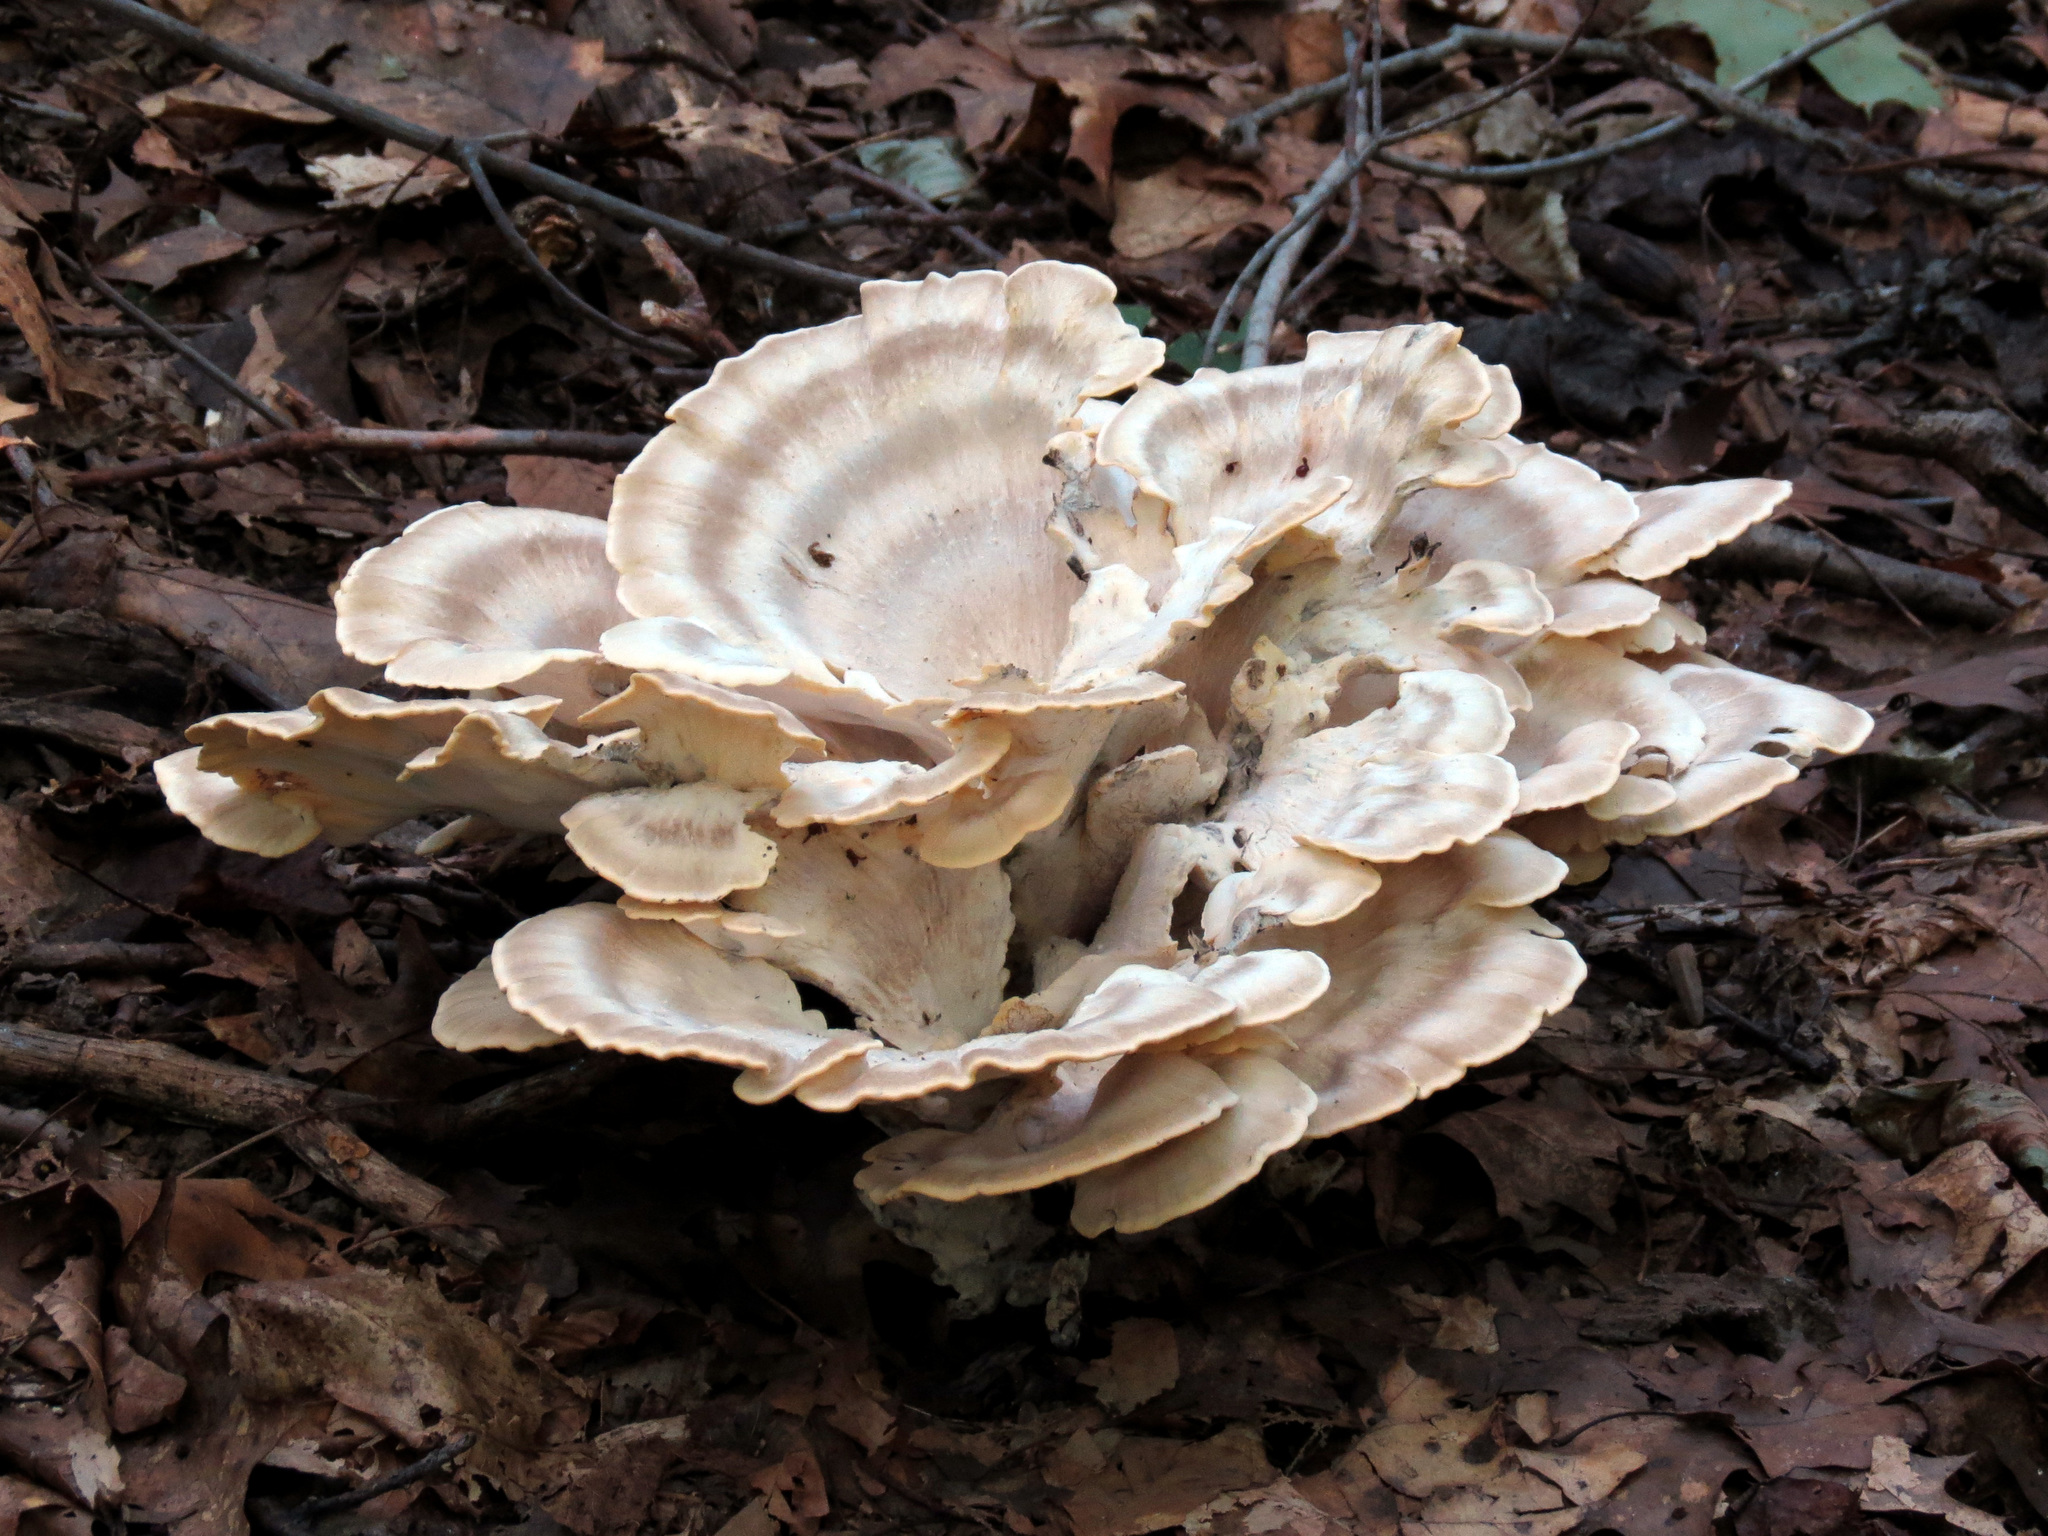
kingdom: Fungi
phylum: Basidiomycota
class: Agaricomycetes
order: Polyporales
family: Meripilaceae
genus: Meripilus
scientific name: Meripilus sumstinei
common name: Black-staining polypore
